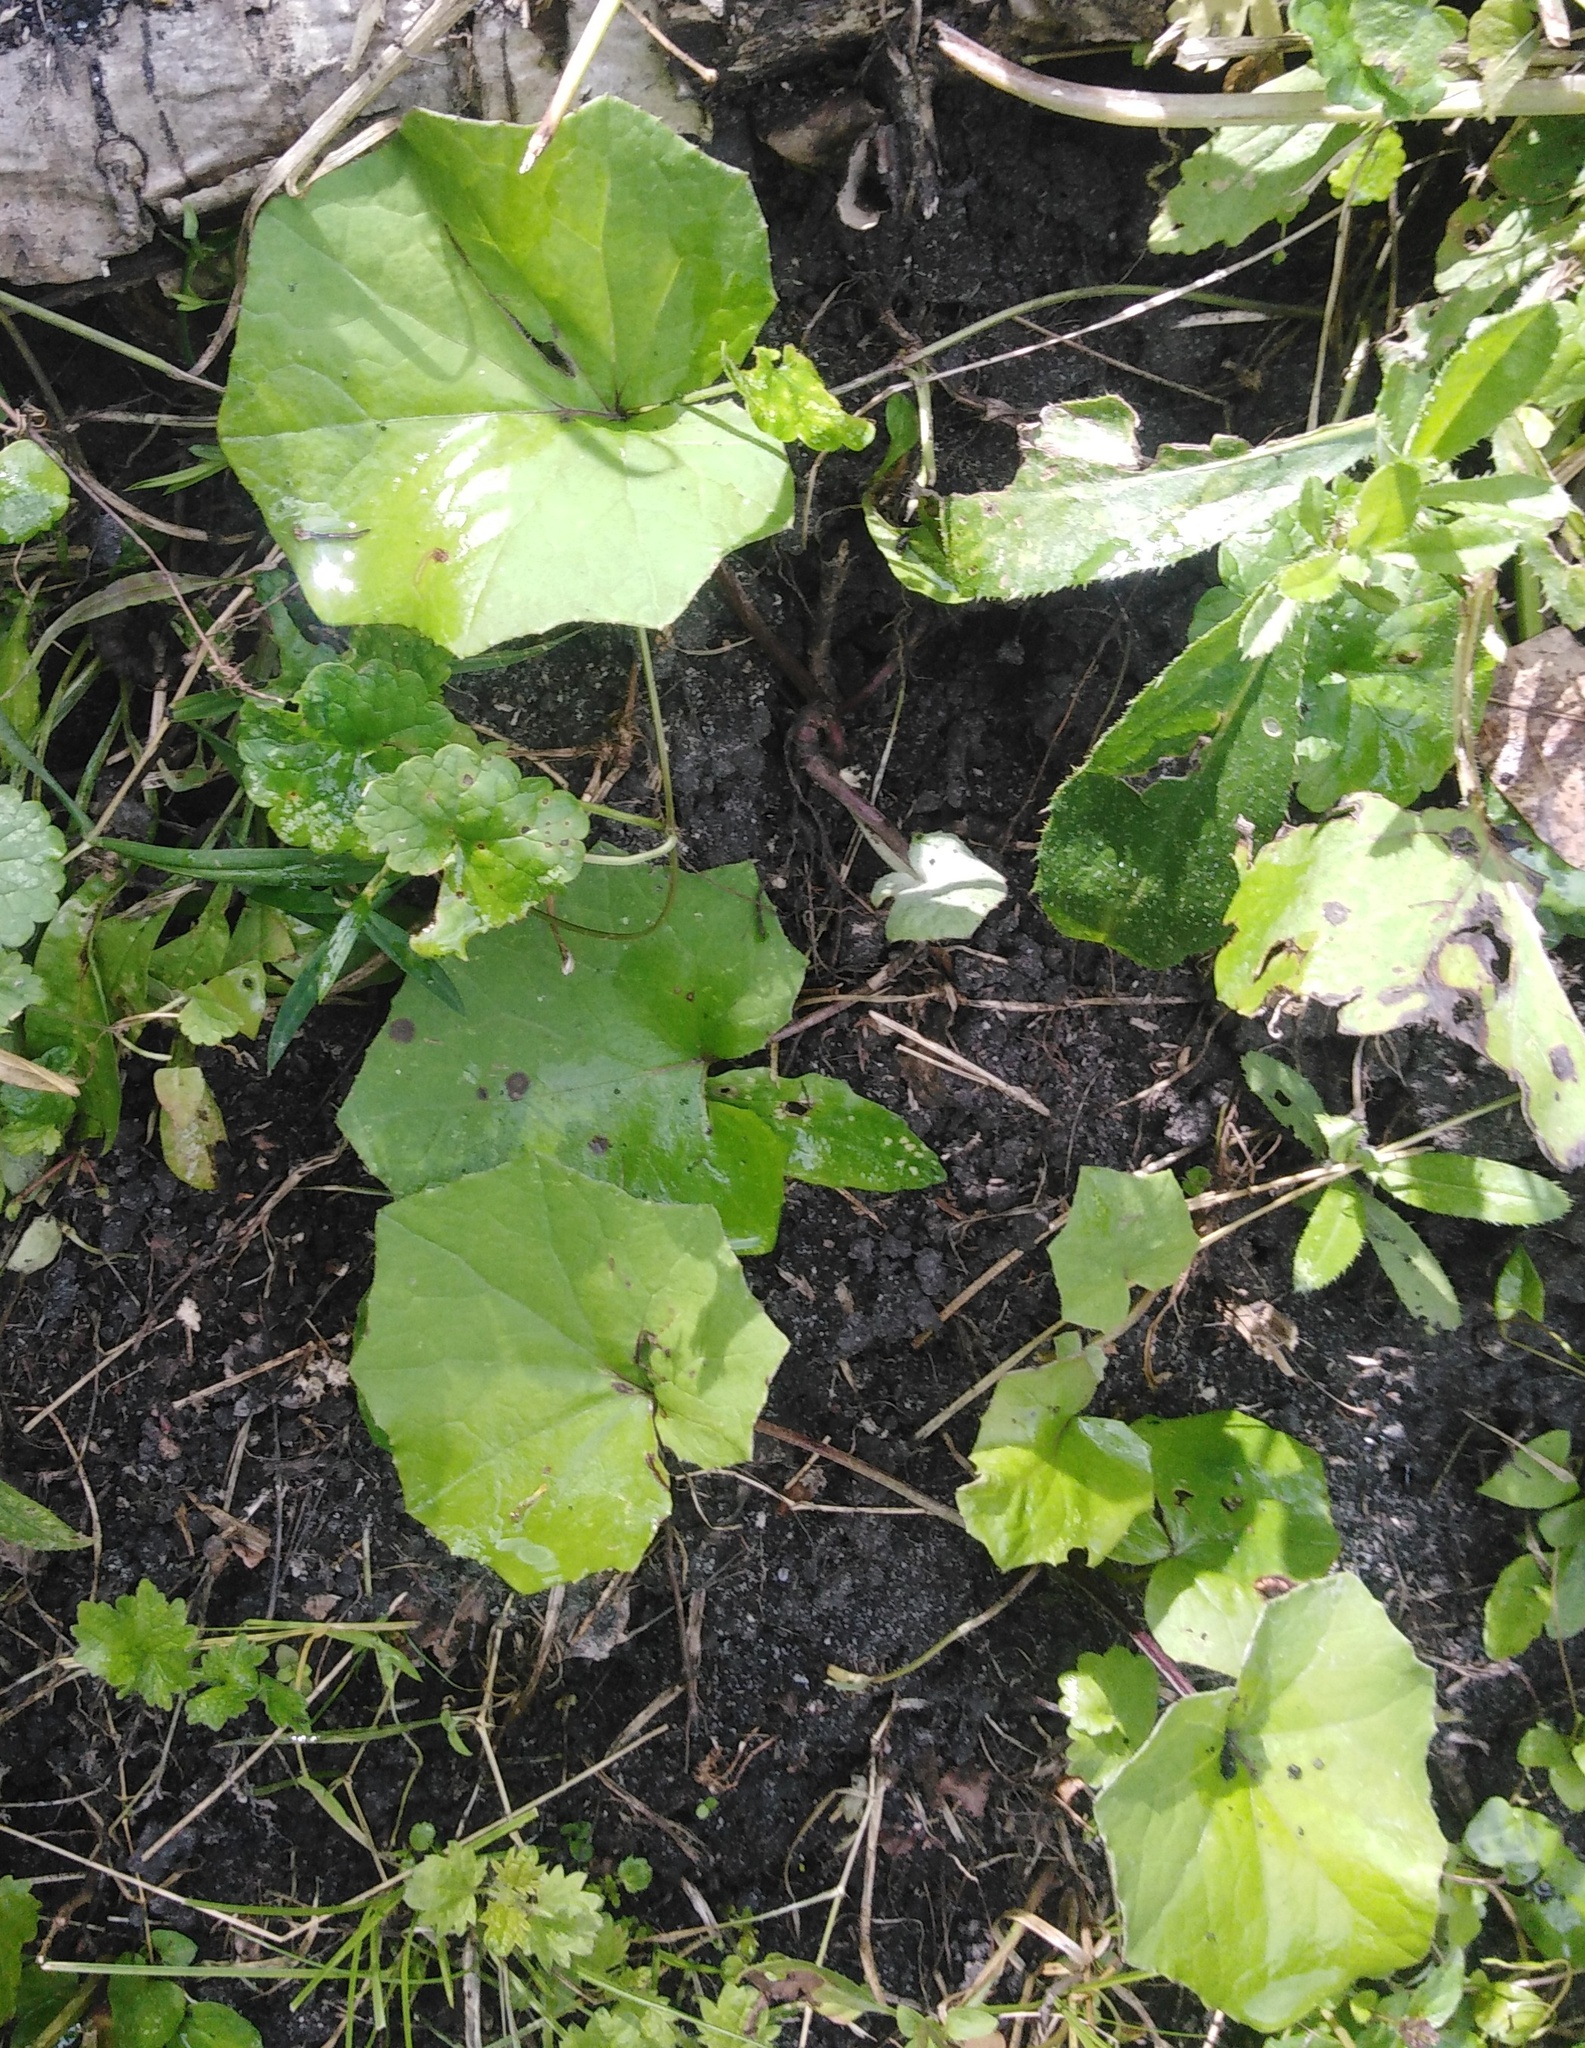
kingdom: Plantae
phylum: Tracheophyta
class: Magnoliopsida
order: Asterales
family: Asteraceae
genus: Tussilago
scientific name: Tussilago farfara
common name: Coltsfoot
